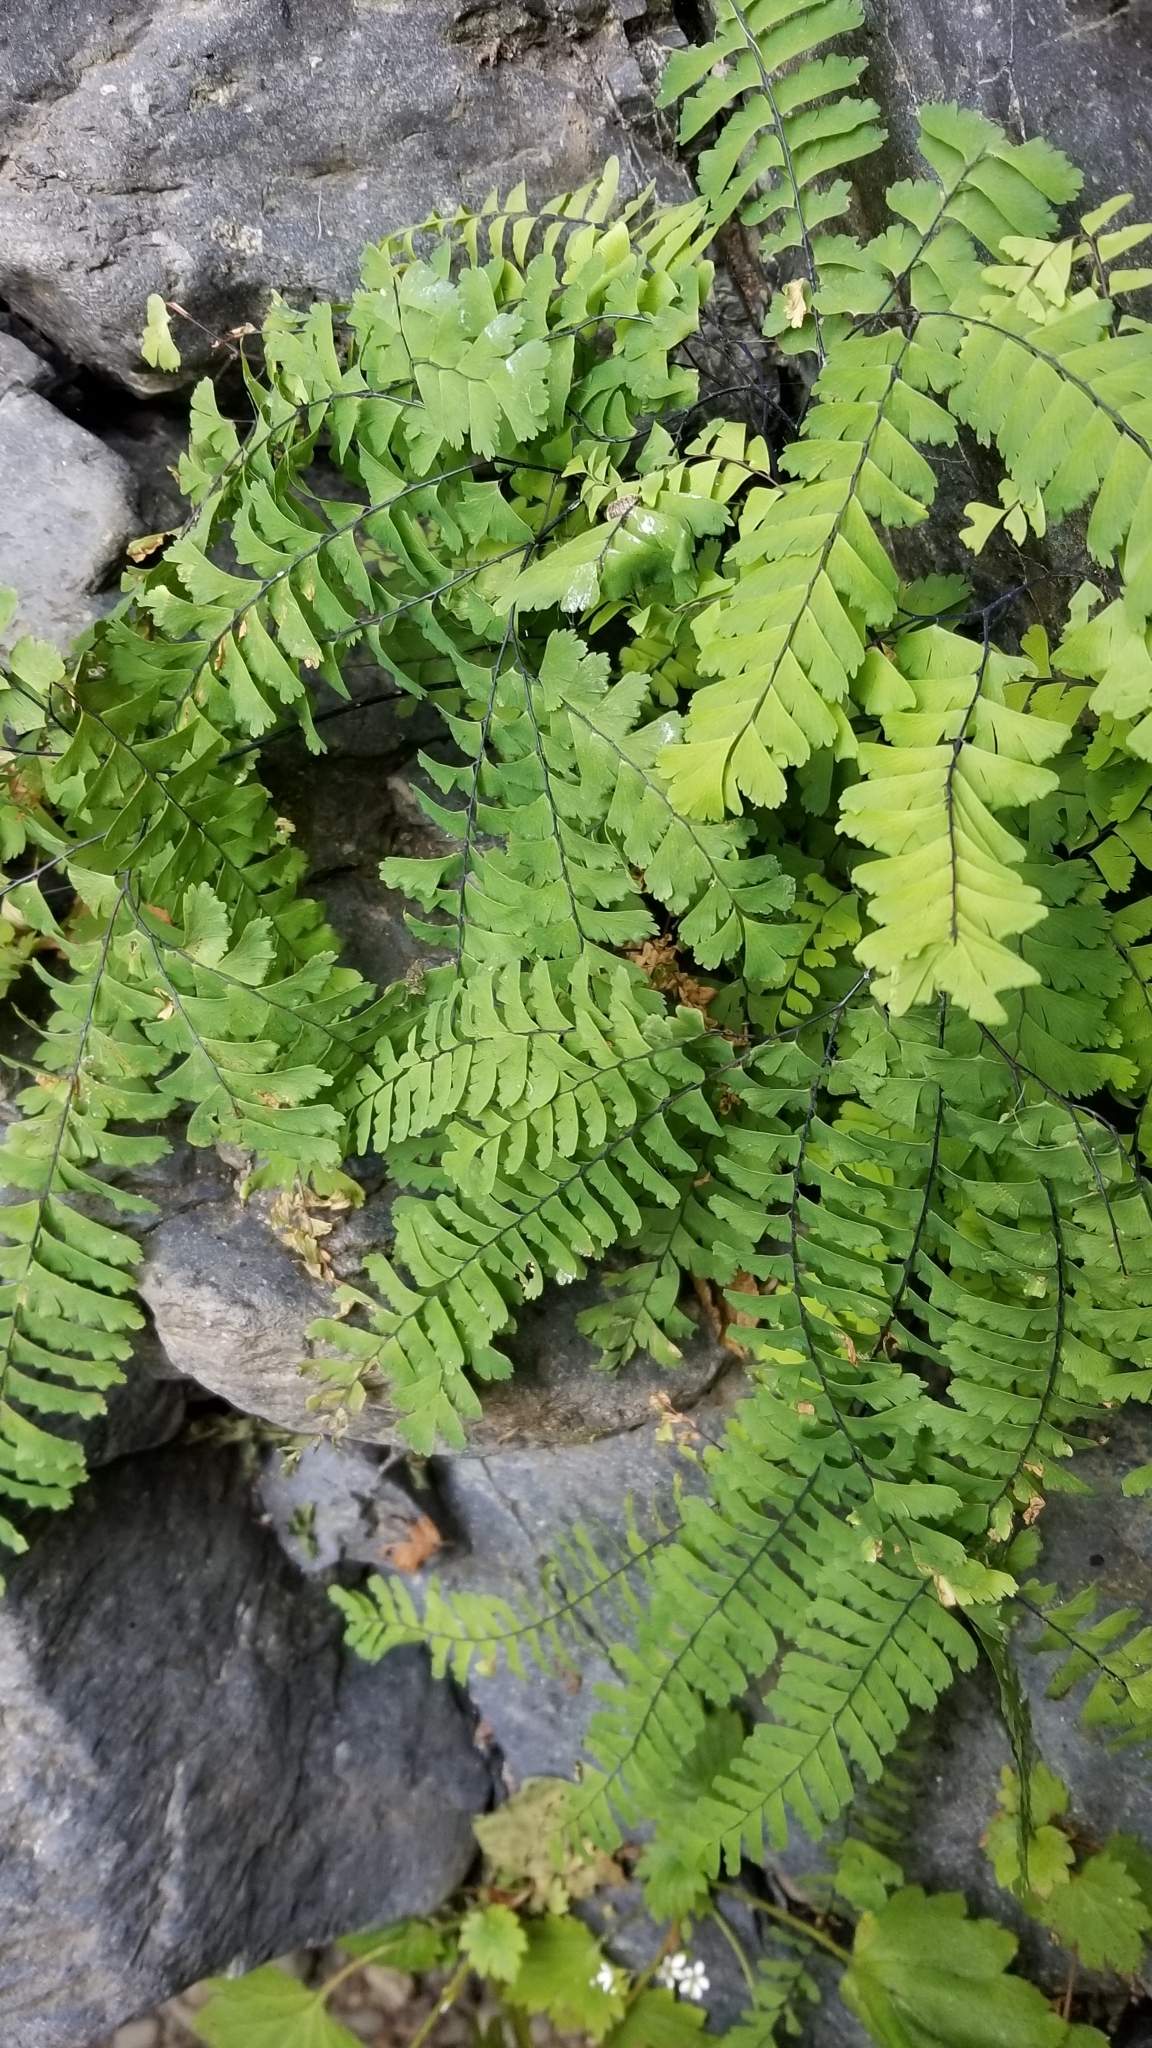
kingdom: Plantae
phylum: Tracheophyta
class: Polypodiopsida
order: Polypodiales
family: Pteridaceae
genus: Adiantum
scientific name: Adiantum aleuticum
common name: Aleutian maidenhair fern
